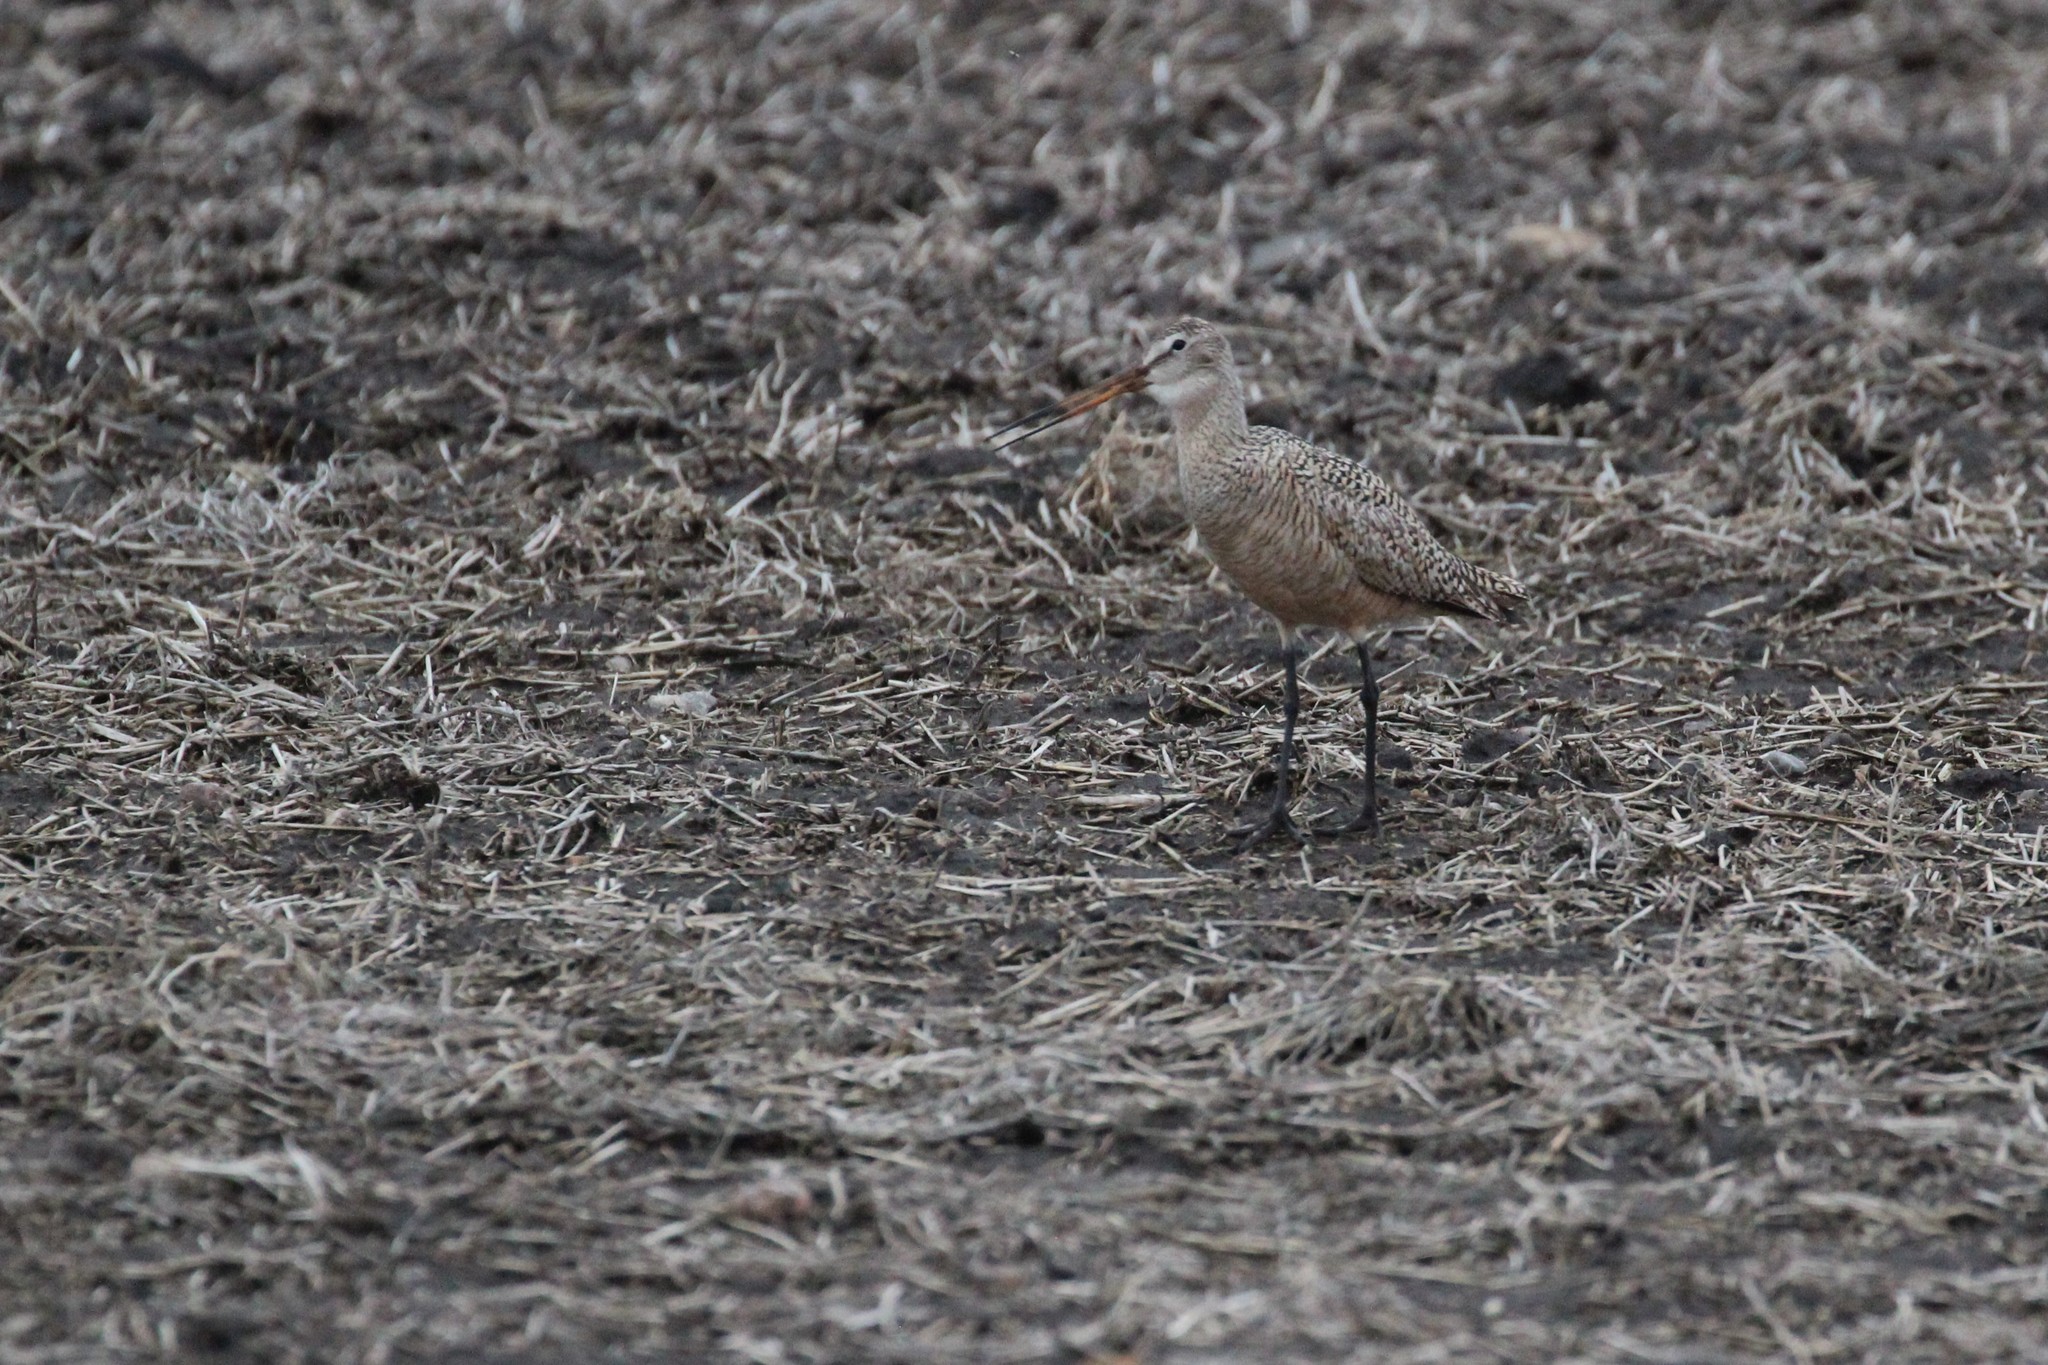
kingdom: Animalia
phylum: Chordata
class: Aves
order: Charadriiformes
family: Scolopacidae
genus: Limosa
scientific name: Limosa fedoa
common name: Marbled godwit
